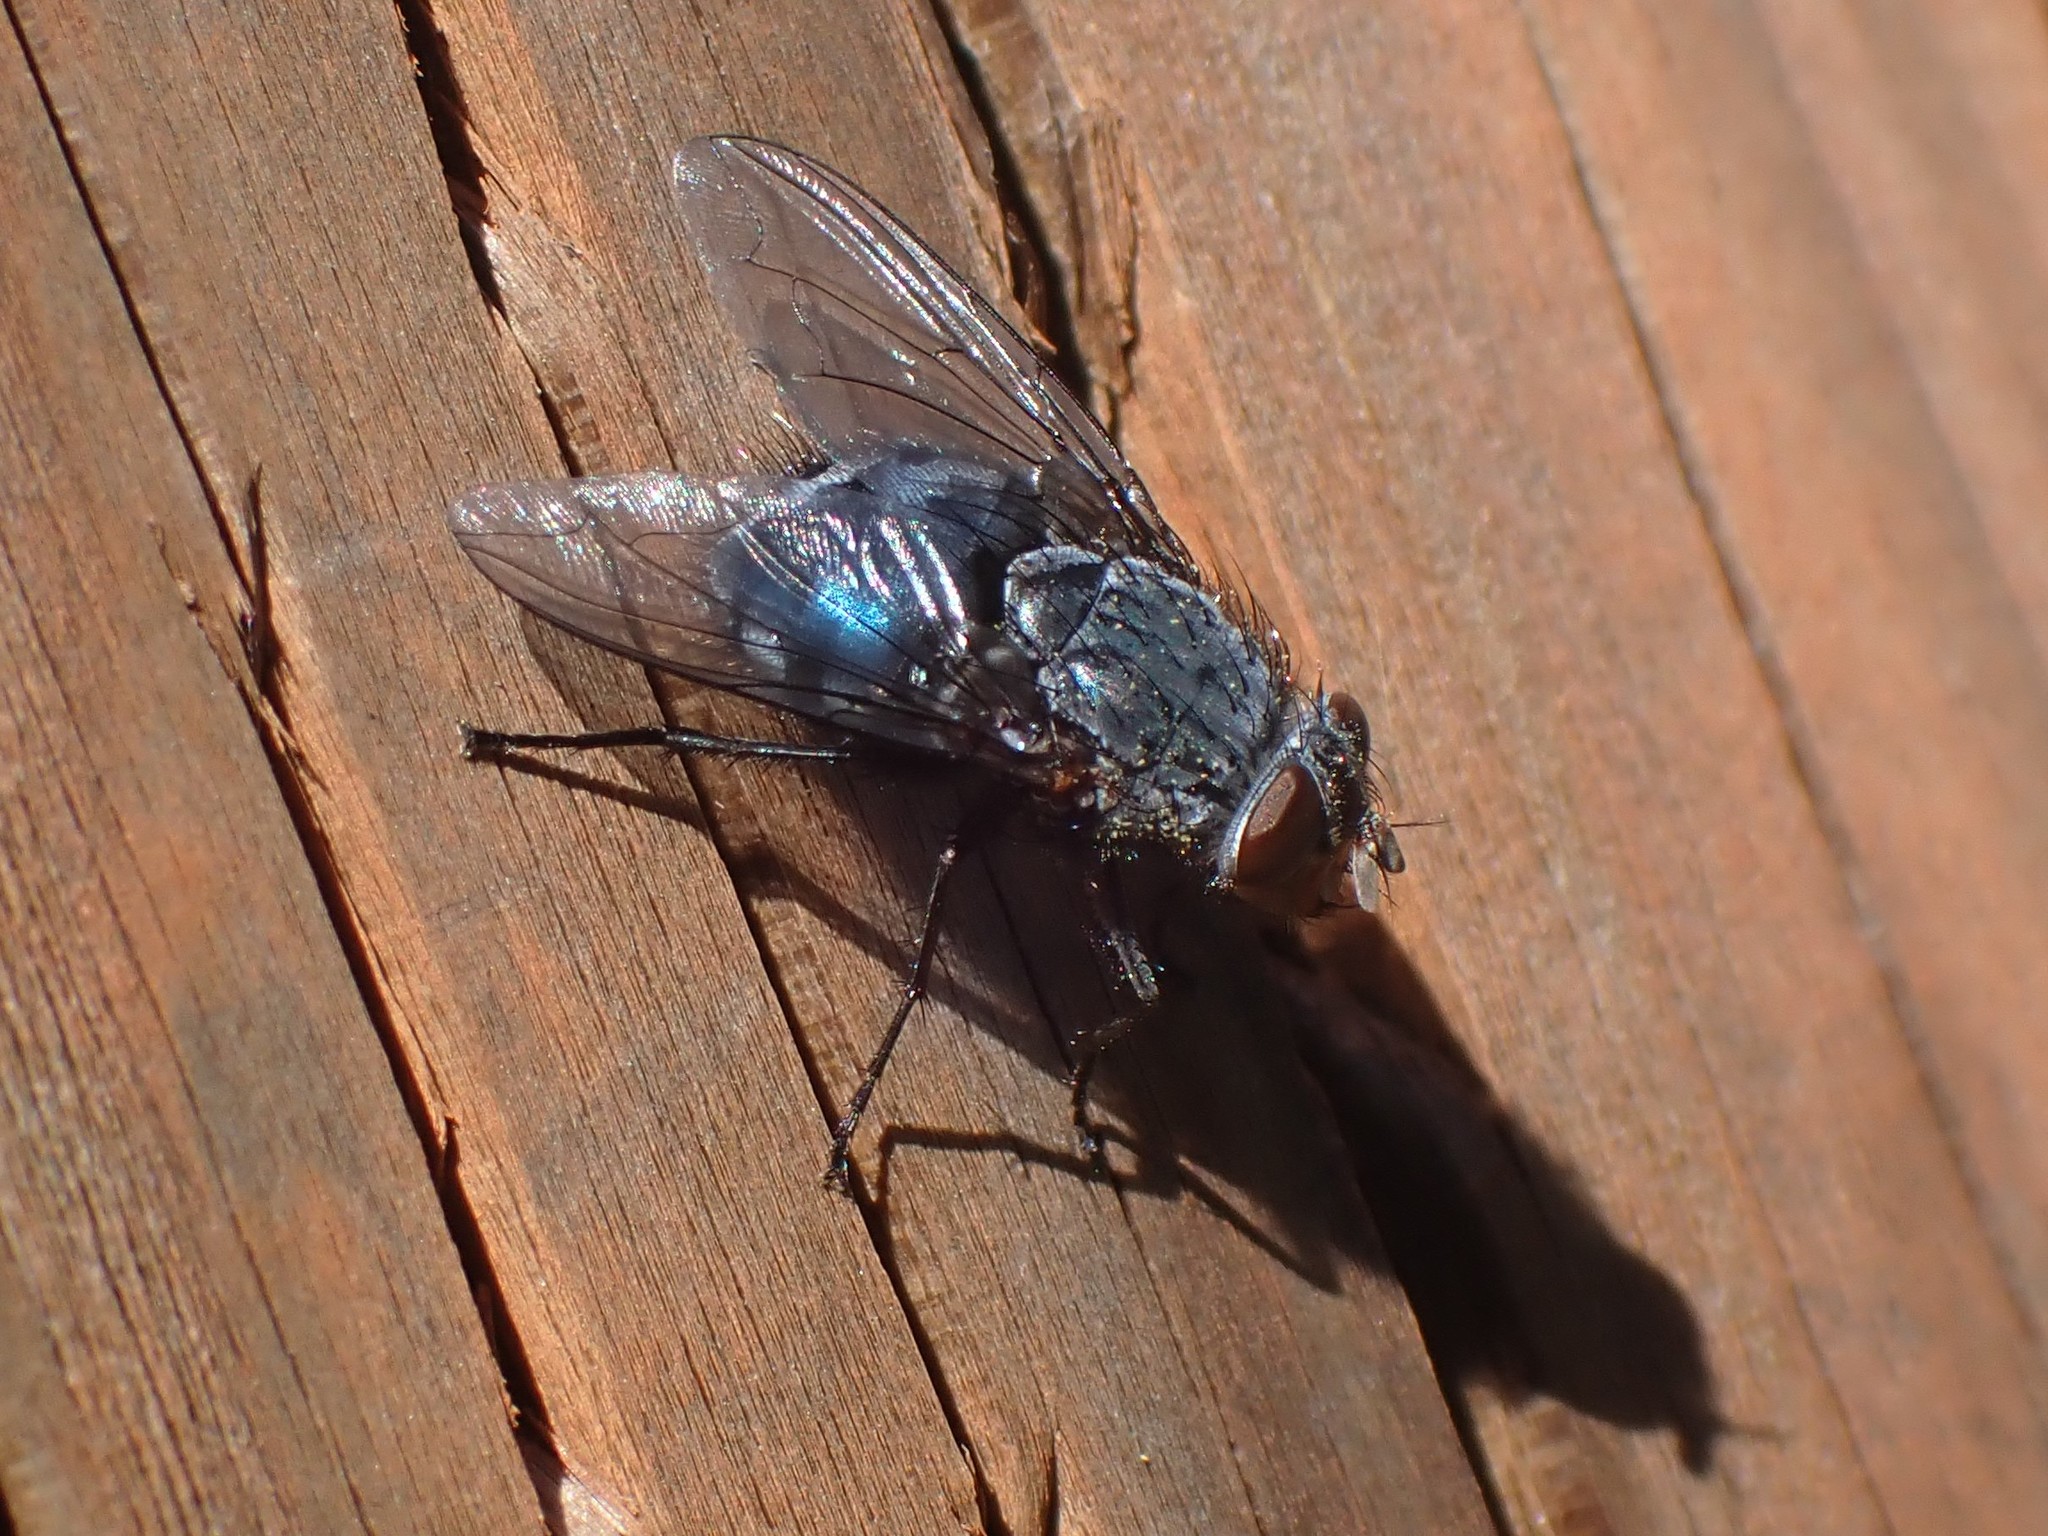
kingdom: Animalia
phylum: Arthropoda
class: Insecta
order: Diptera
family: Calliphoridae
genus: Calliphora
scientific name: Calliphora vicina
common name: Common blow flie
